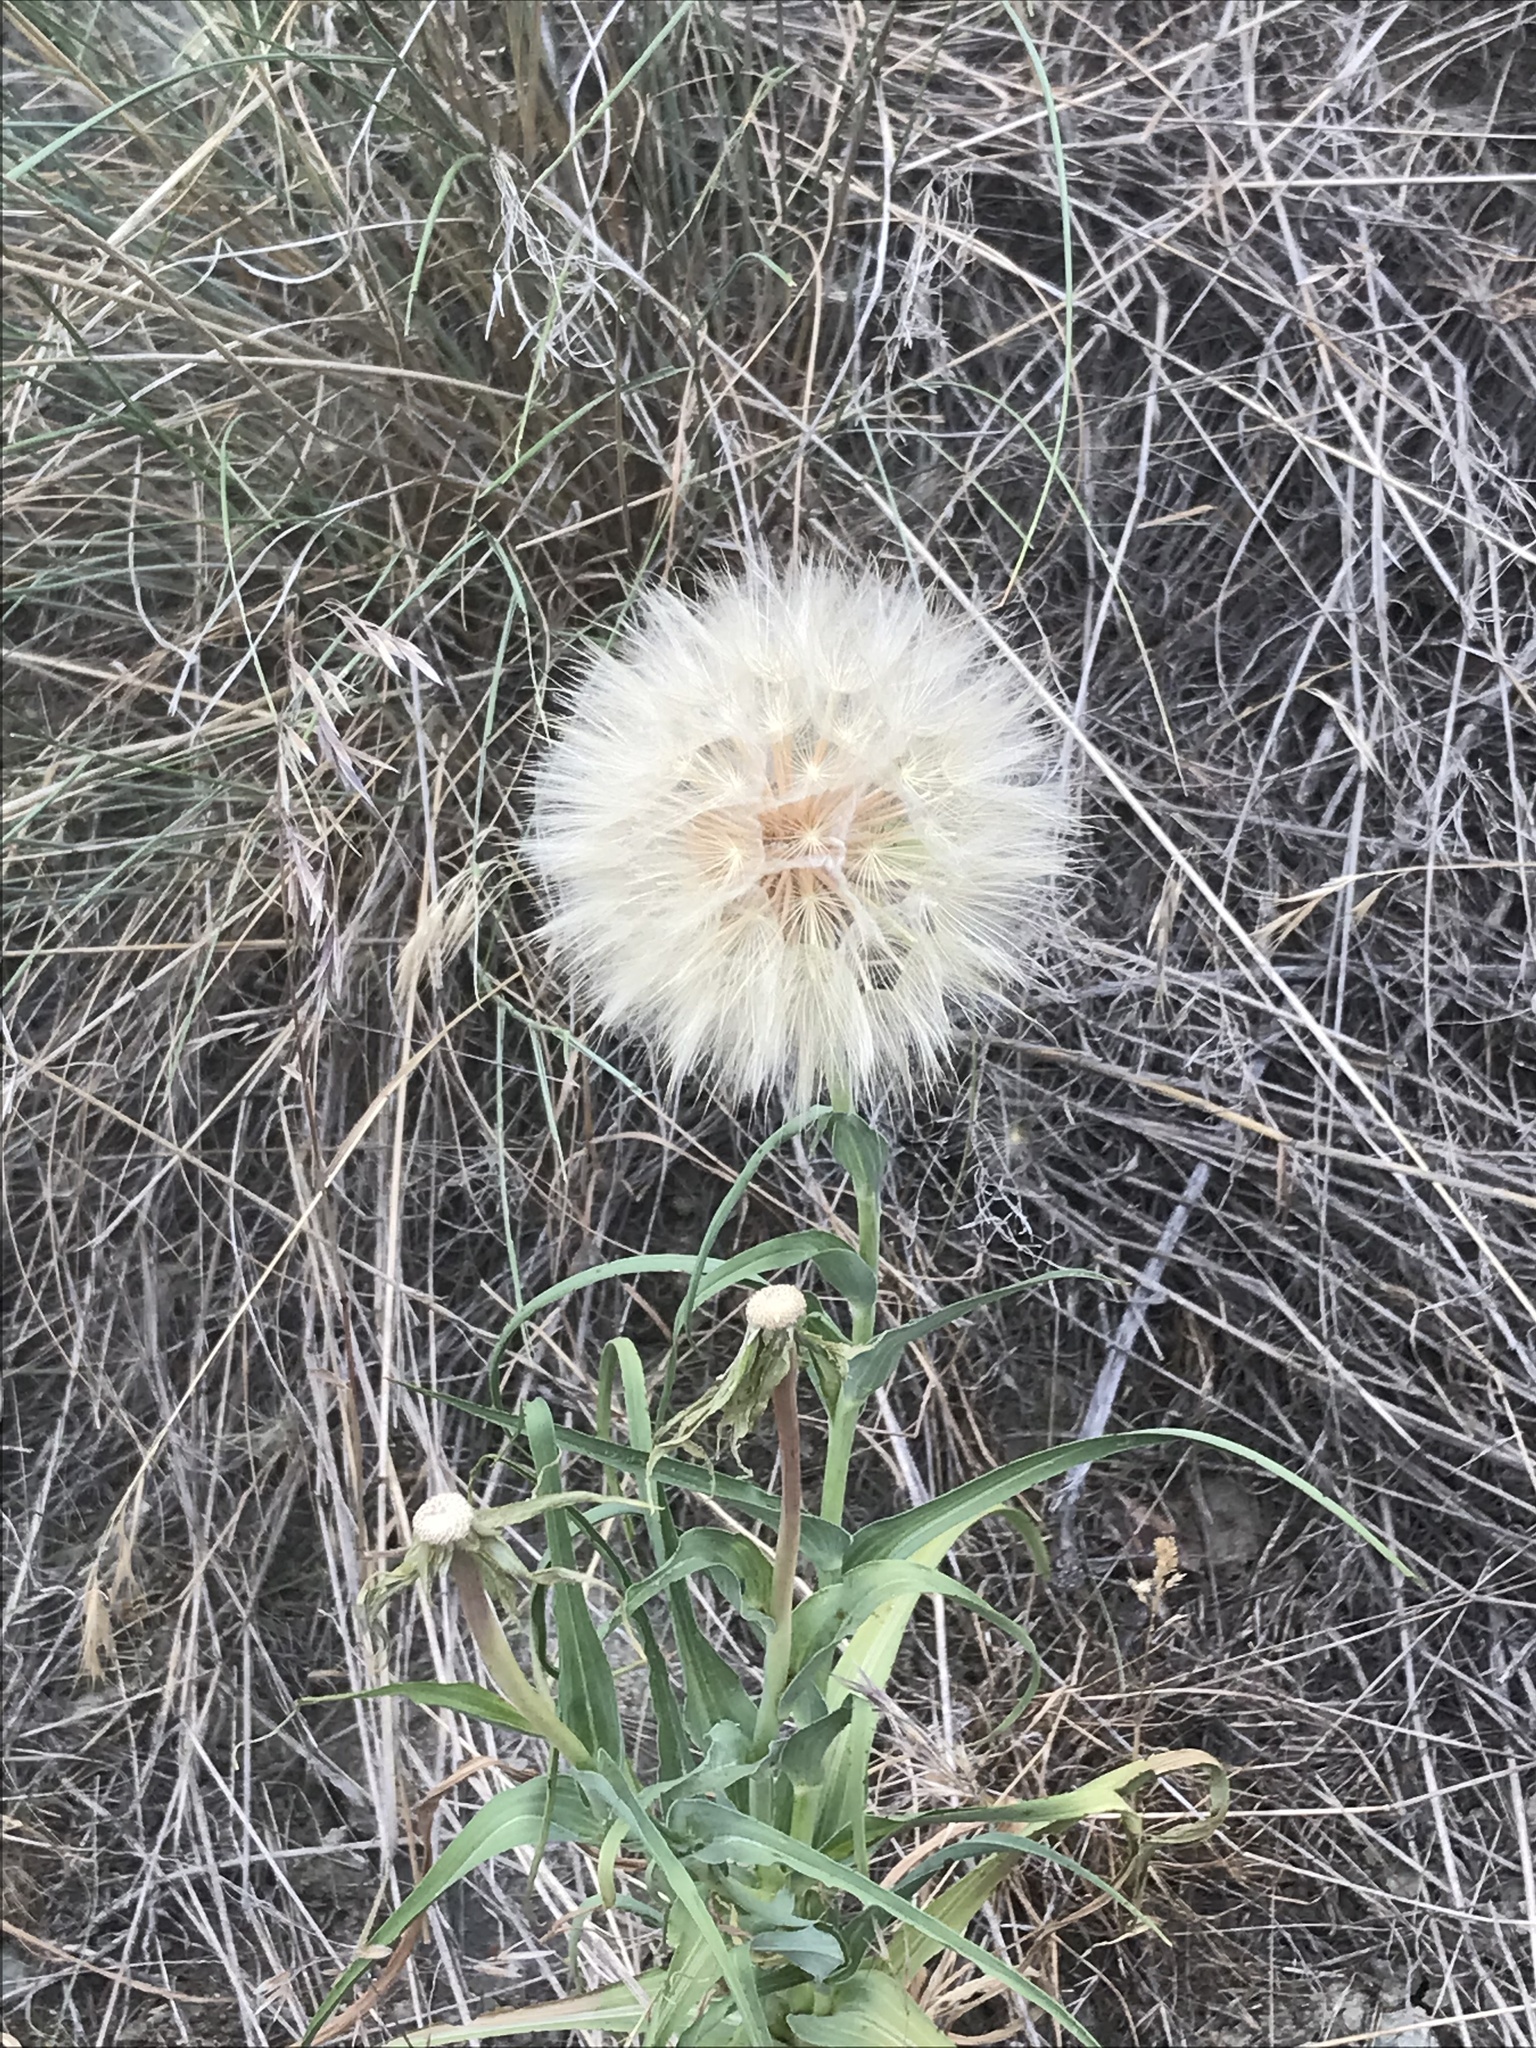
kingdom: Plantae
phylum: Tracheophyta
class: Magnoliopsida
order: Asterales
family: Asteraceae
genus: Tragopogon
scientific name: Tragopogon dubius
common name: Yellow salsify
